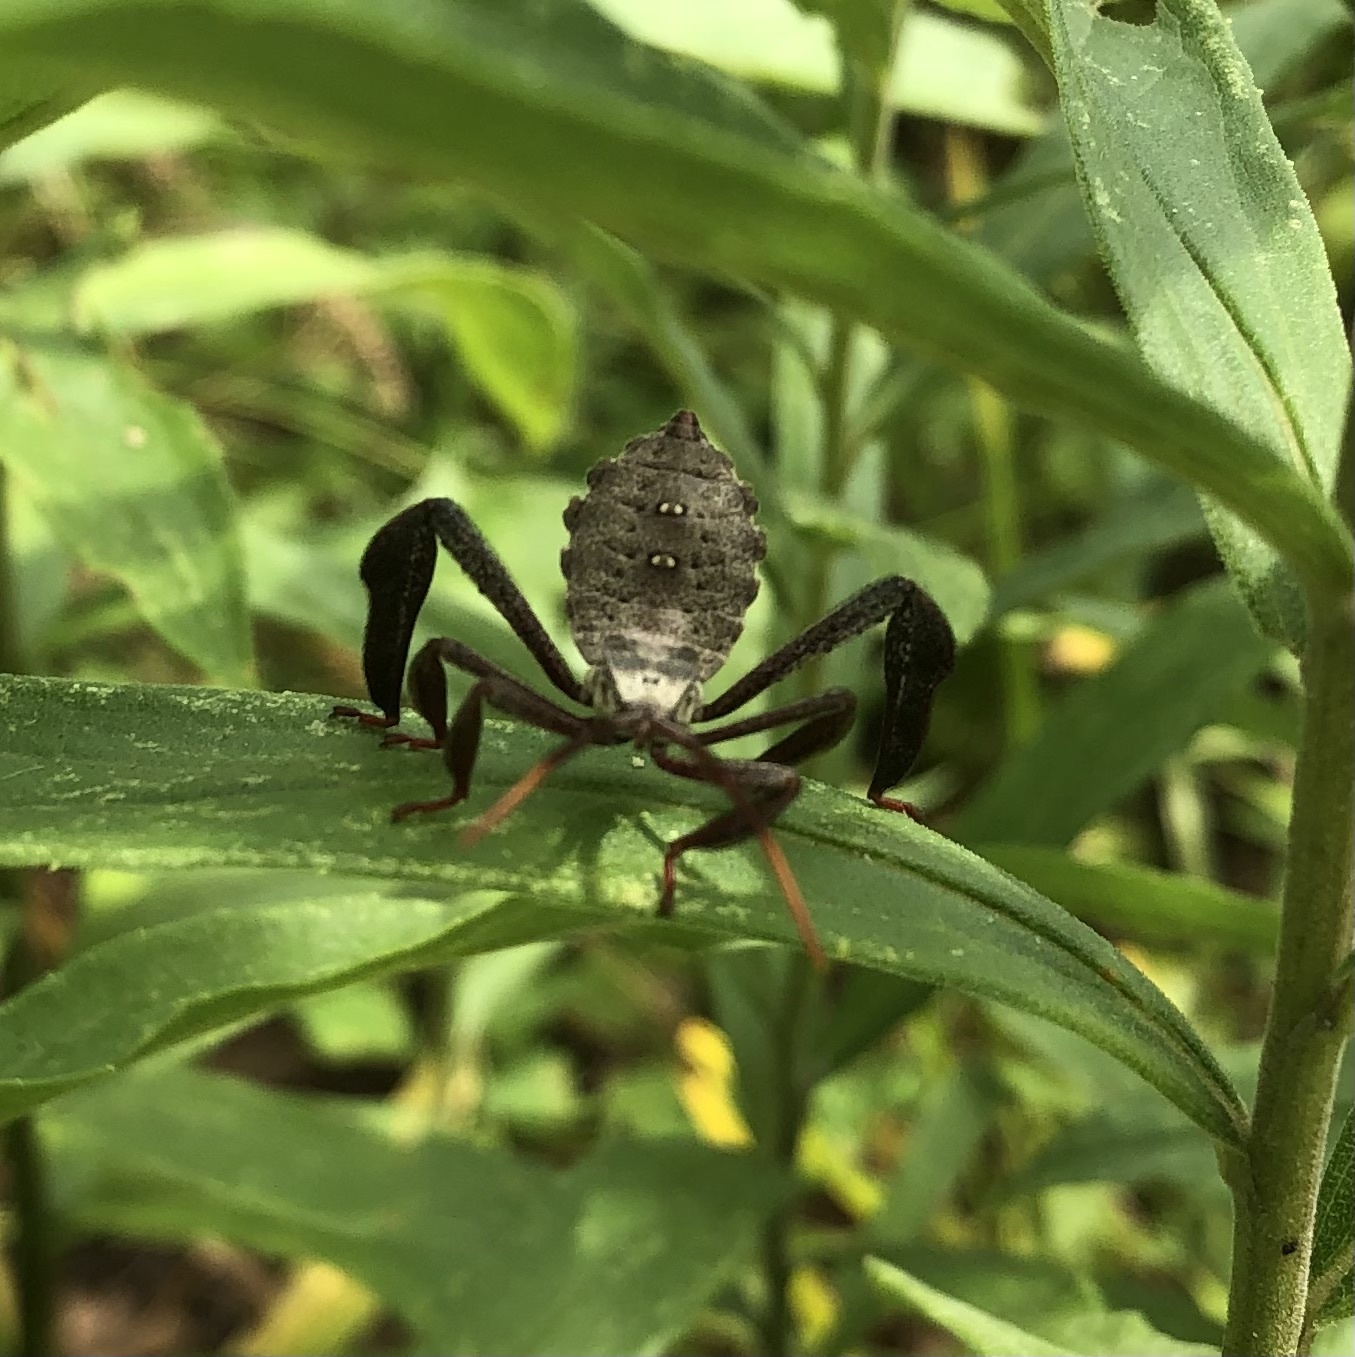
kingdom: Animalia
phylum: Arthropoda
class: Insecta
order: Hemiptera
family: Coreidae
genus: Acanthocephala
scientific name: Acanthocephala declivis
